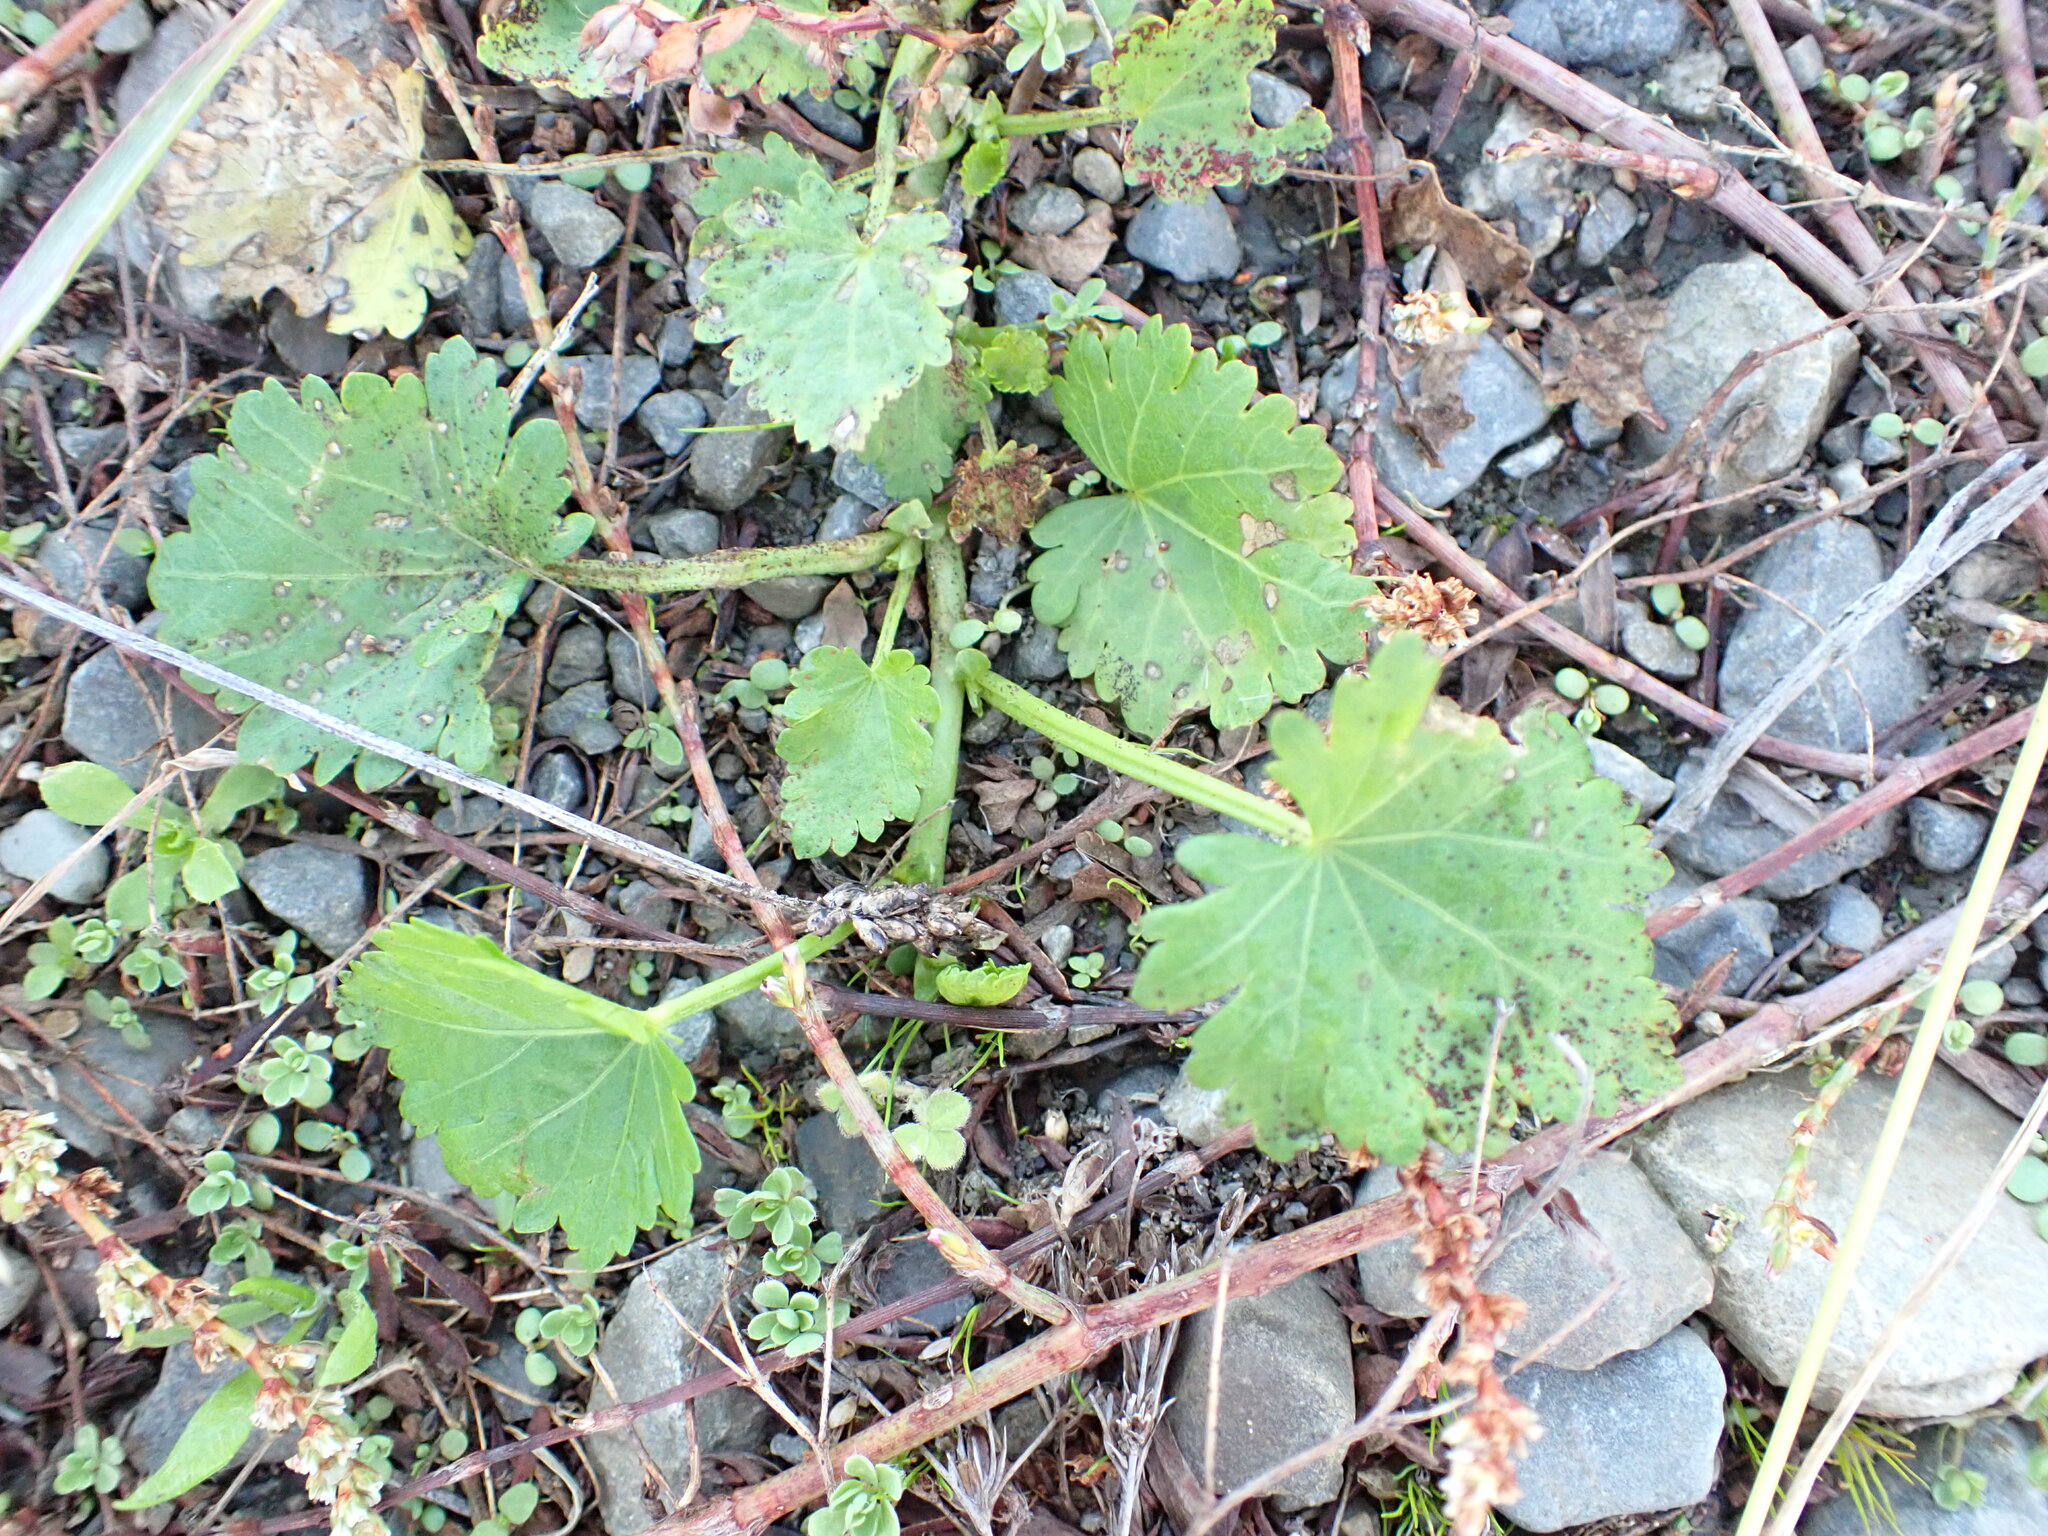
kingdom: Plantae
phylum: Tracheophyta
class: Magnoliopsida
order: Malvales
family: Malvaceae
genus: Modiola
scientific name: Modiola caroliniana
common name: Carolina bristlemallow
